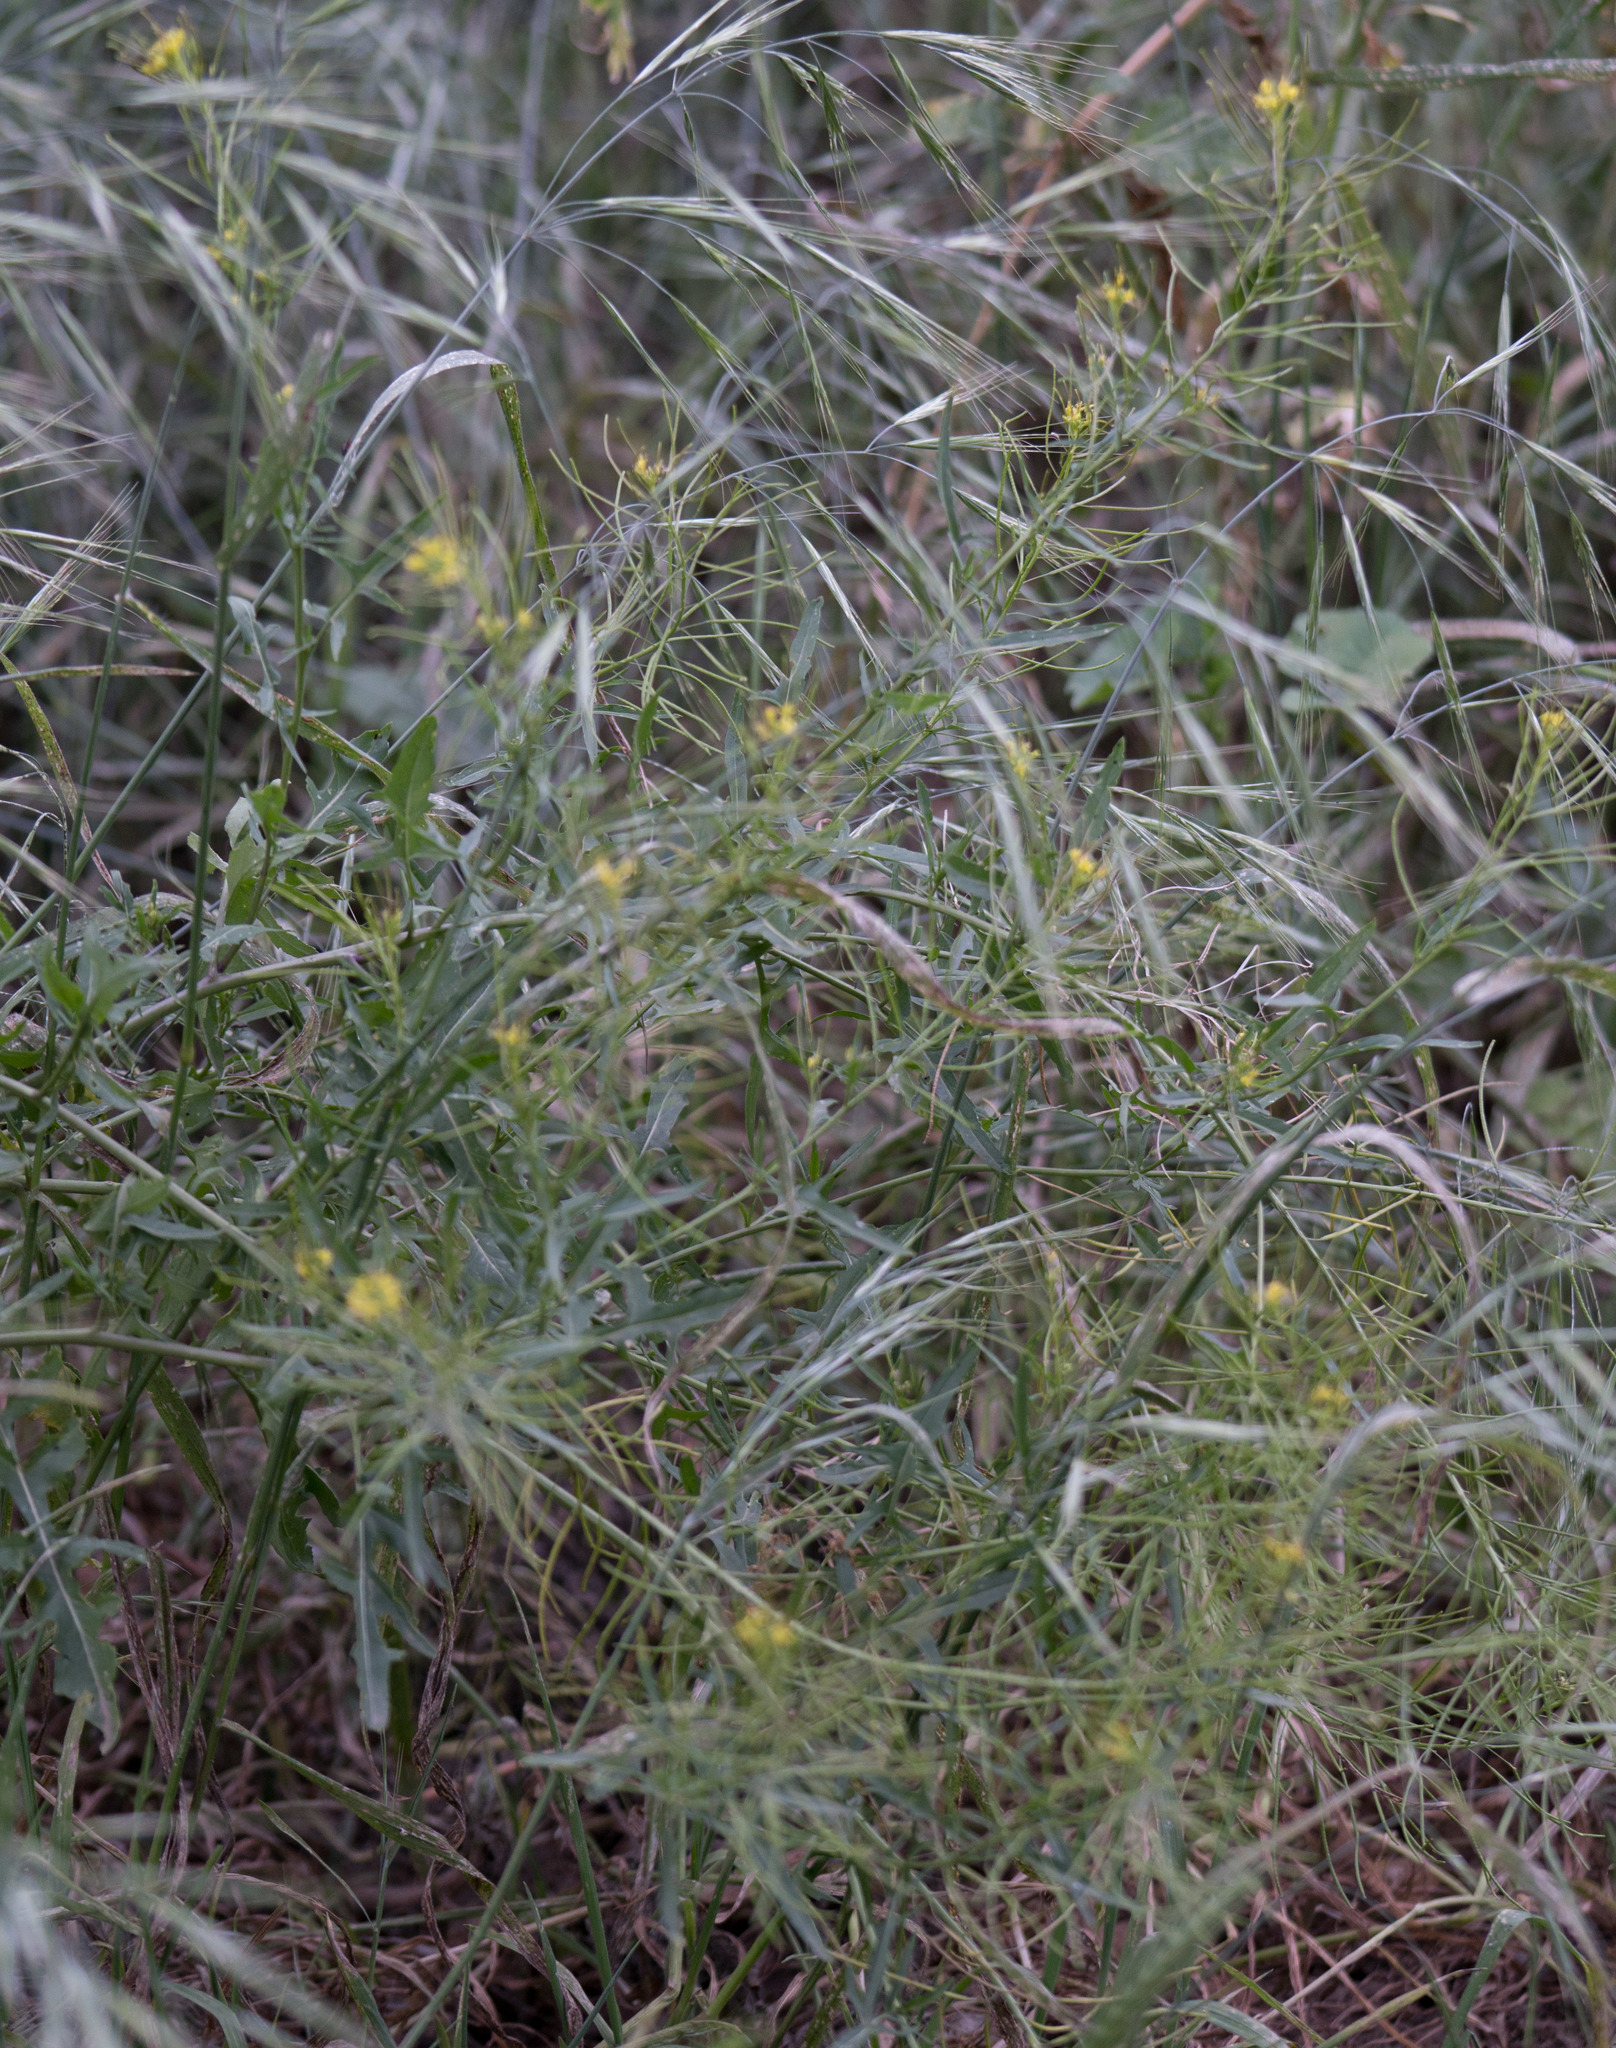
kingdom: Plantae
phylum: Tracheophyta
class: Magnoliopsida
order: Brassicales
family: Brassicaceae
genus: Sisymbrium
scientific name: Sisymbrium irio
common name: London rocket
